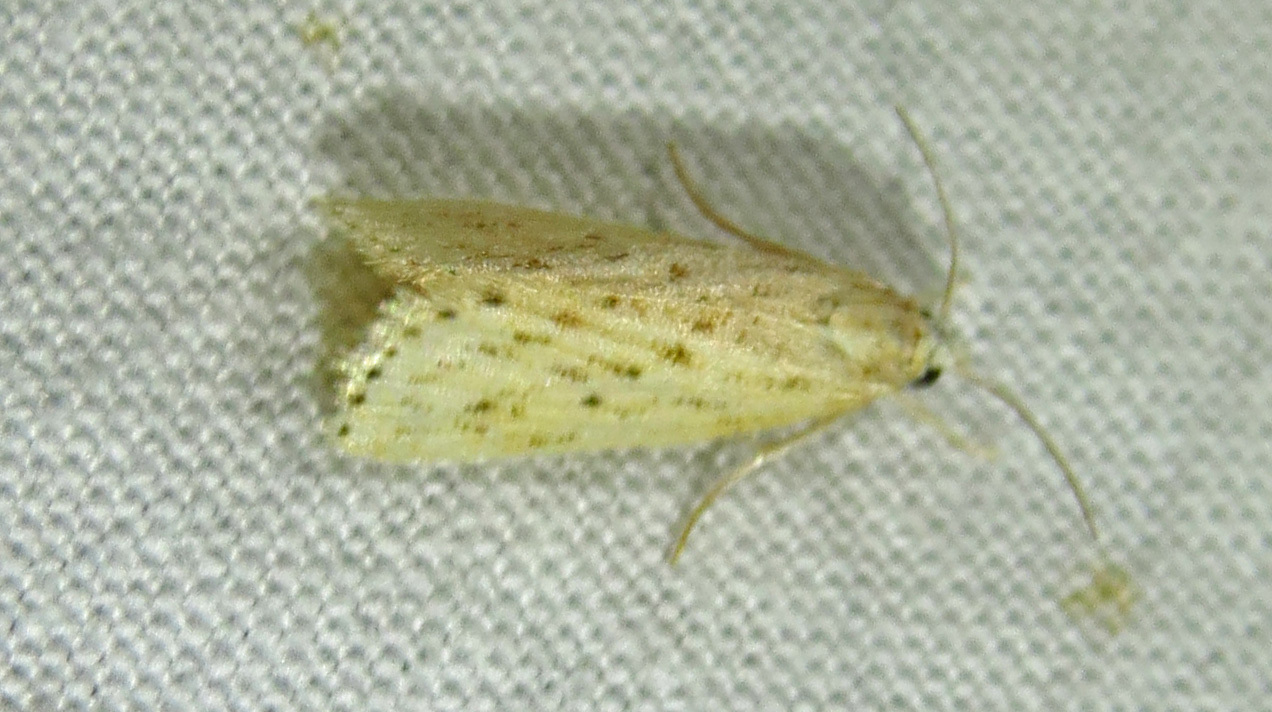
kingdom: Animalia
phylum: Arthropoda
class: Insecta
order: Lepidoptera
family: Crambidae
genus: Diatraea
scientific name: Diatraea lisetta
